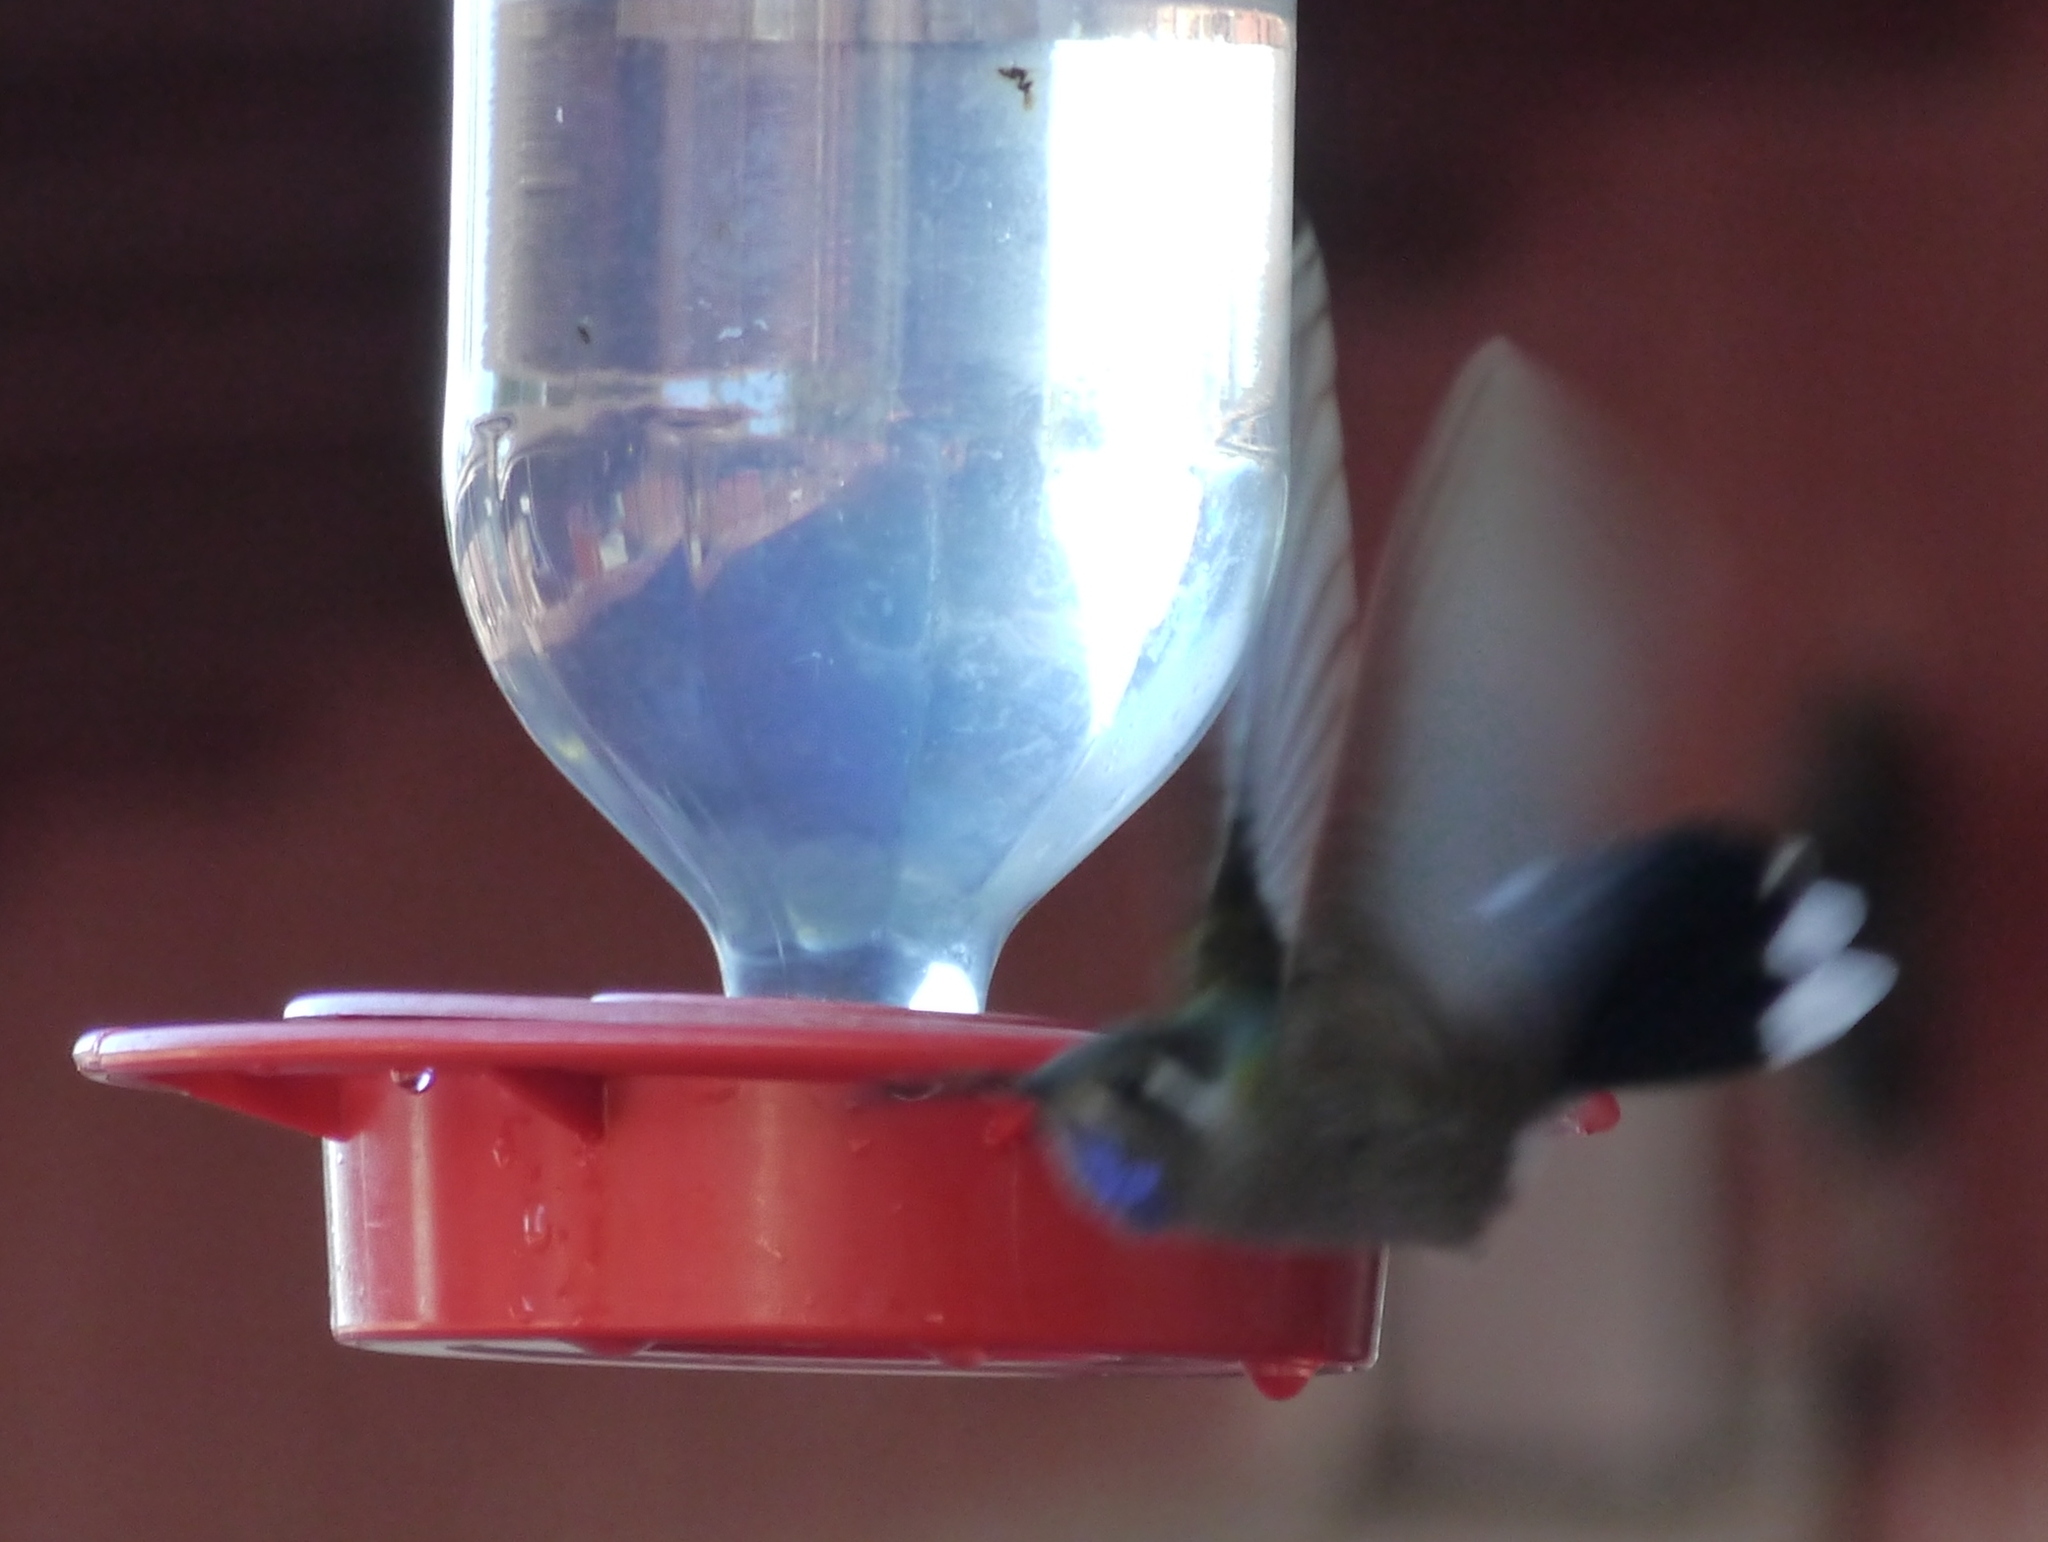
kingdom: Animalia
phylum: Chordata
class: Aves
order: Apodiformes
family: Trochilidae
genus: Lampornis
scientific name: Lampornis clemenciae
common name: Blue-throated mountaingem
